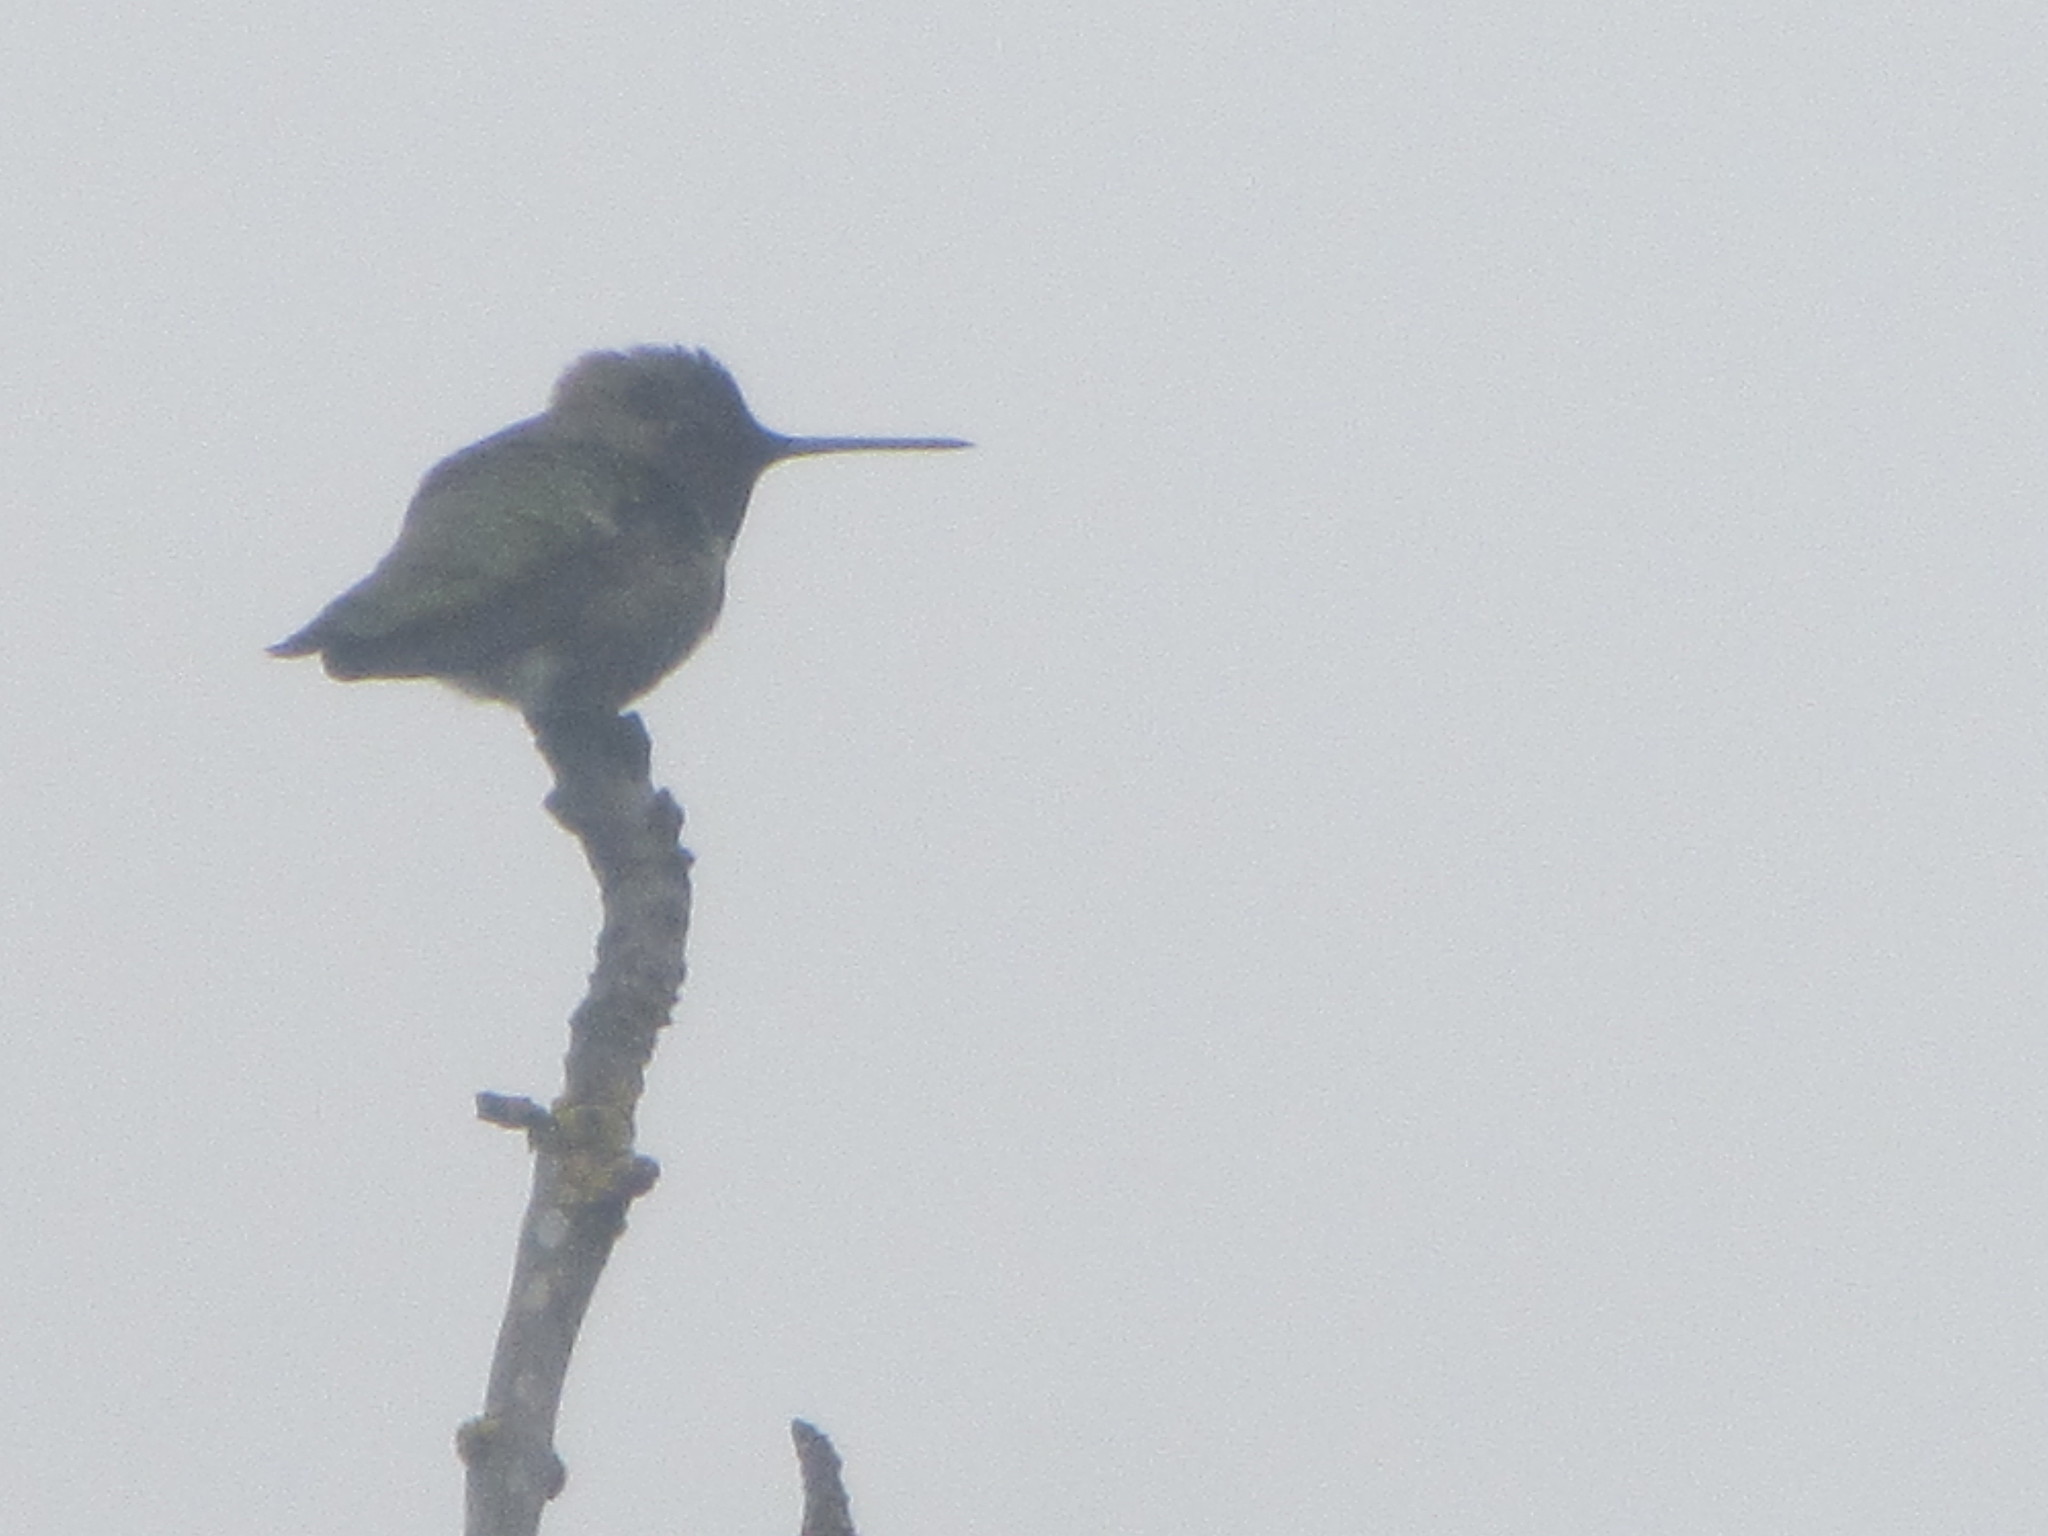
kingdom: Animalia
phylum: Chordata
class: Aves
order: Apodiformes
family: Trochilidae
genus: Calypte
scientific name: Calypte anna
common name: Anna's hummingbird
